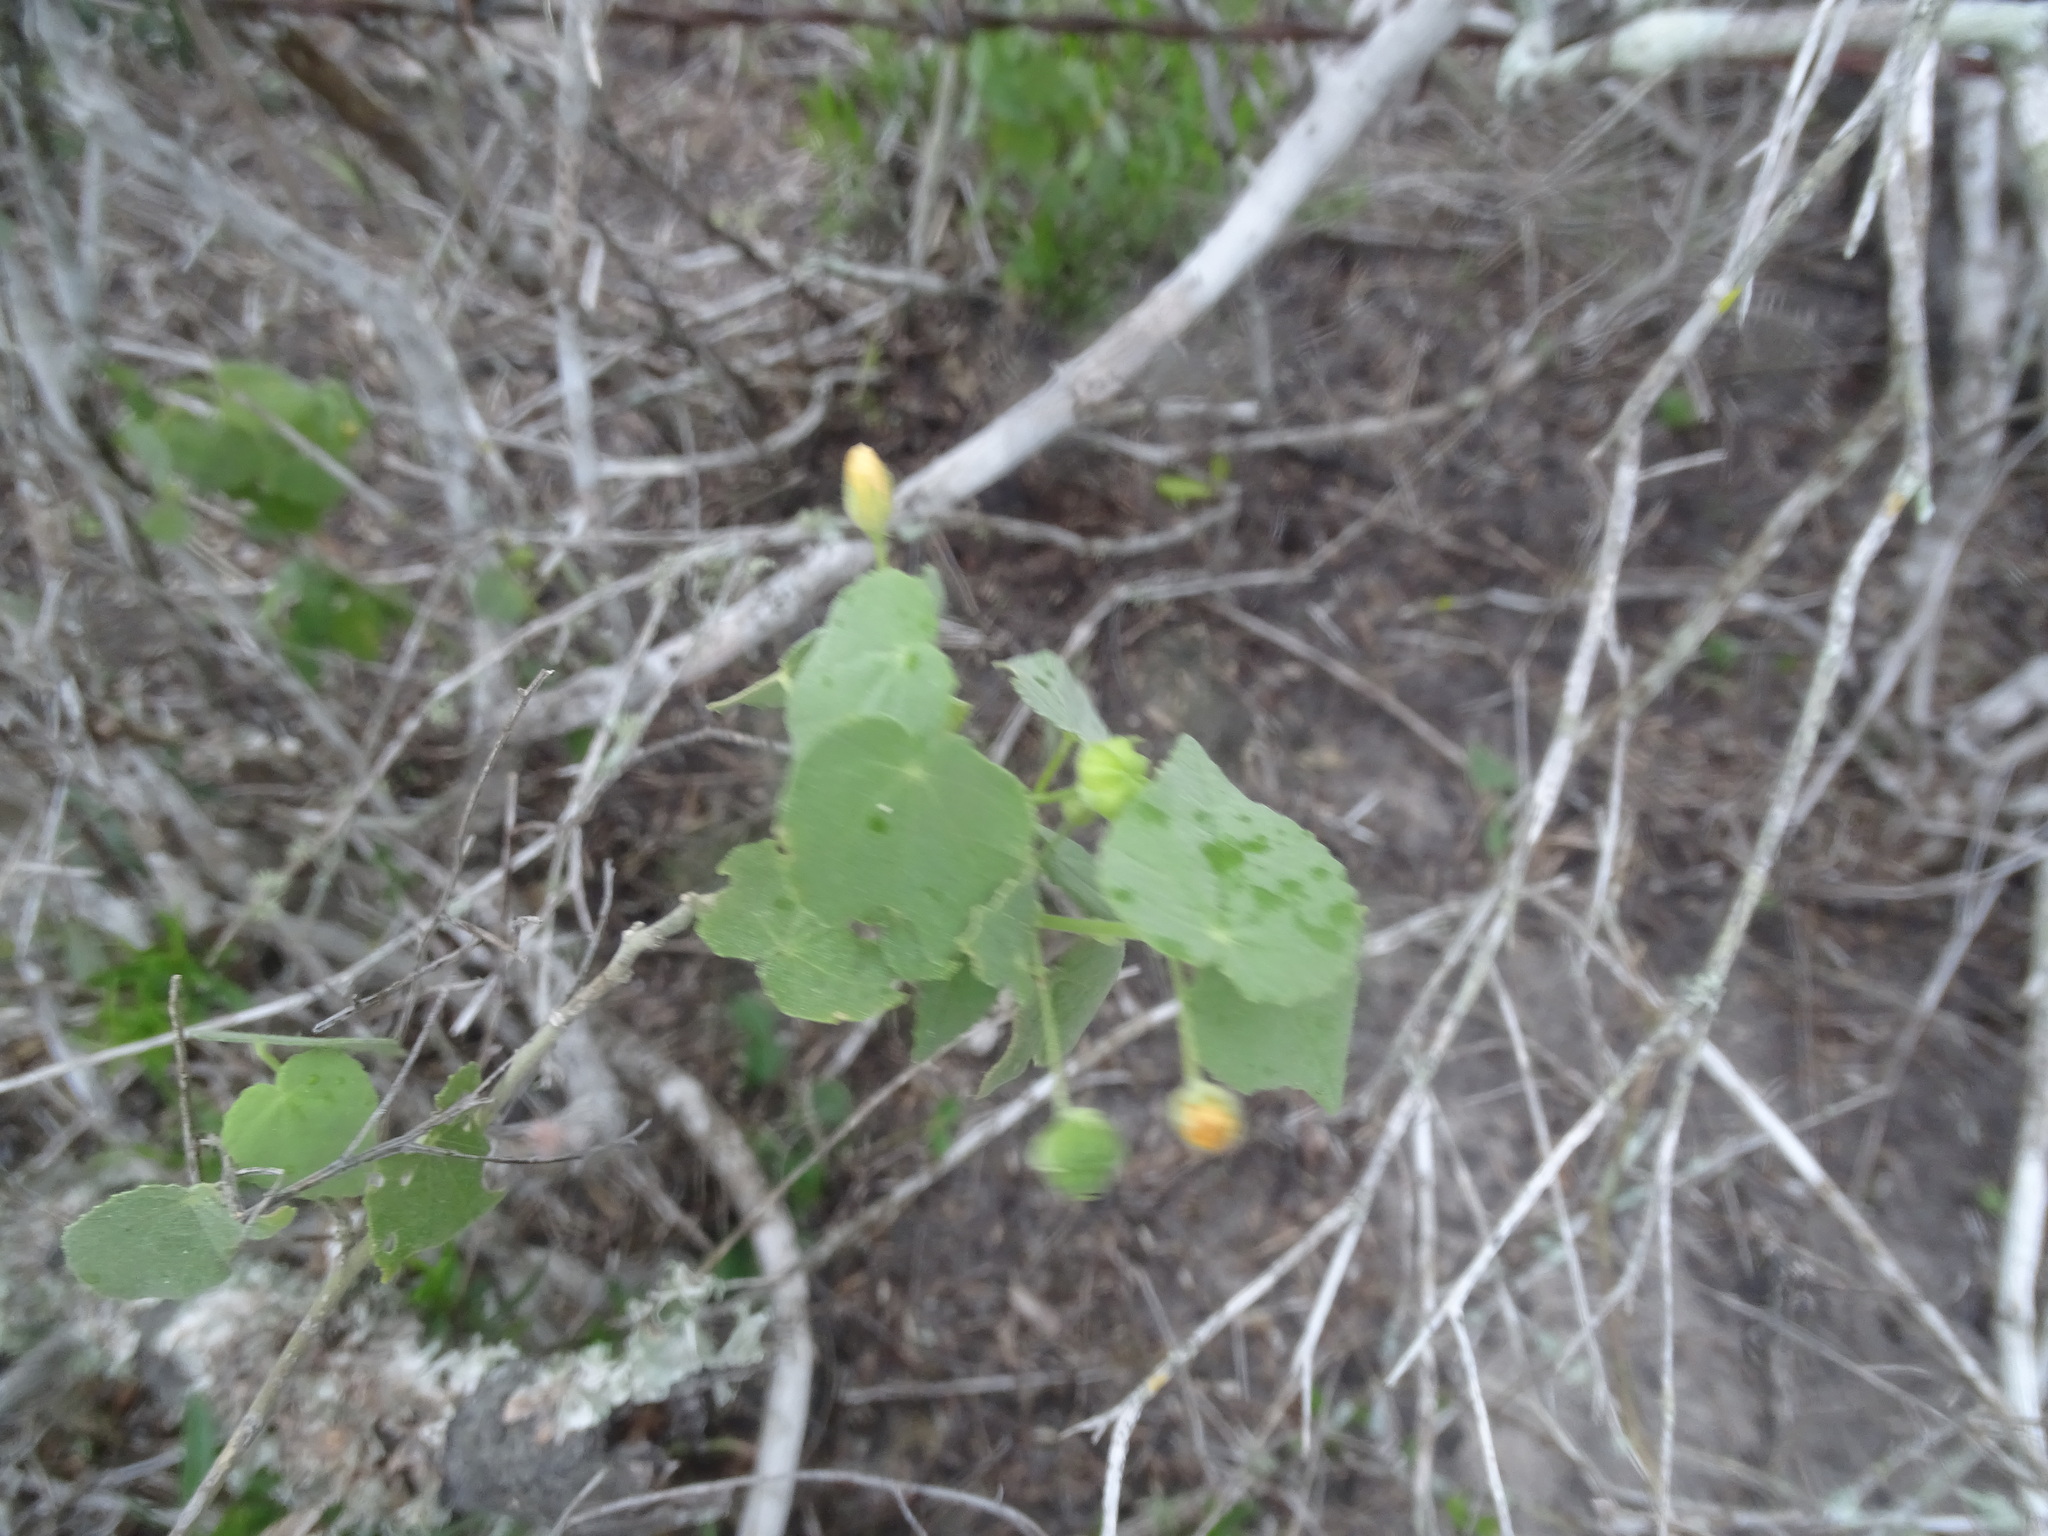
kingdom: Plantae
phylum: Tracheophyta
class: Magnoliopsida
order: Malvales
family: Malvaceae
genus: Abutilon
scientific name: Abutilon viscosum
